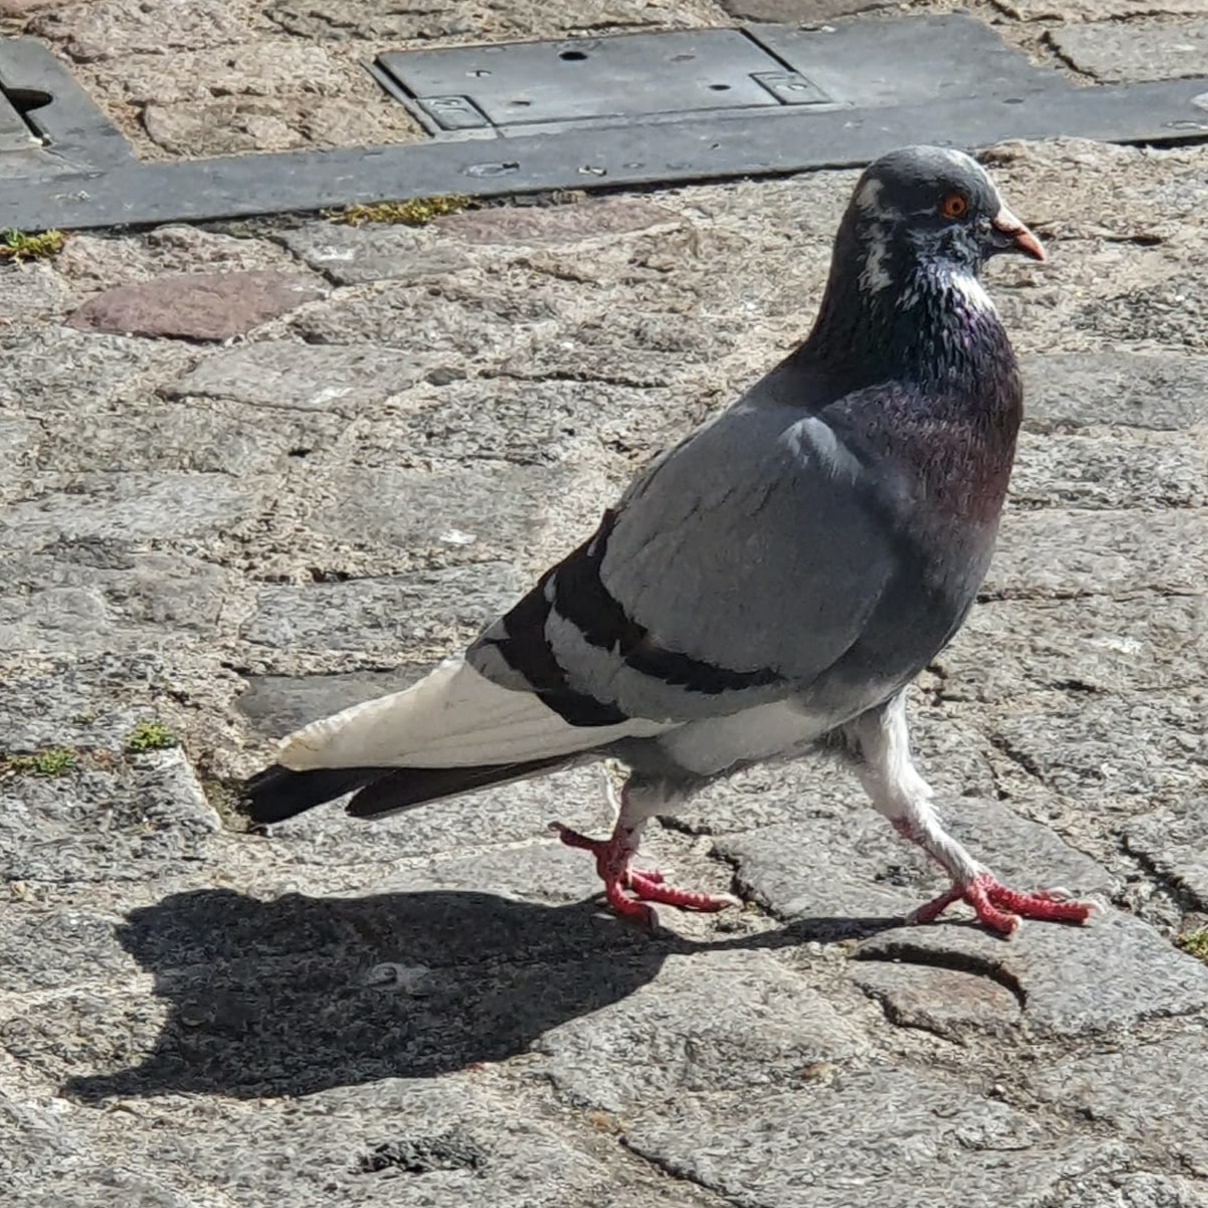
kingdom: Animalia
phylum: Chordata
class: Aves
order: Columbiformes
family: Columbidae
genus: Columba
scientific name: Columba livia
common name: Rock pigeon
